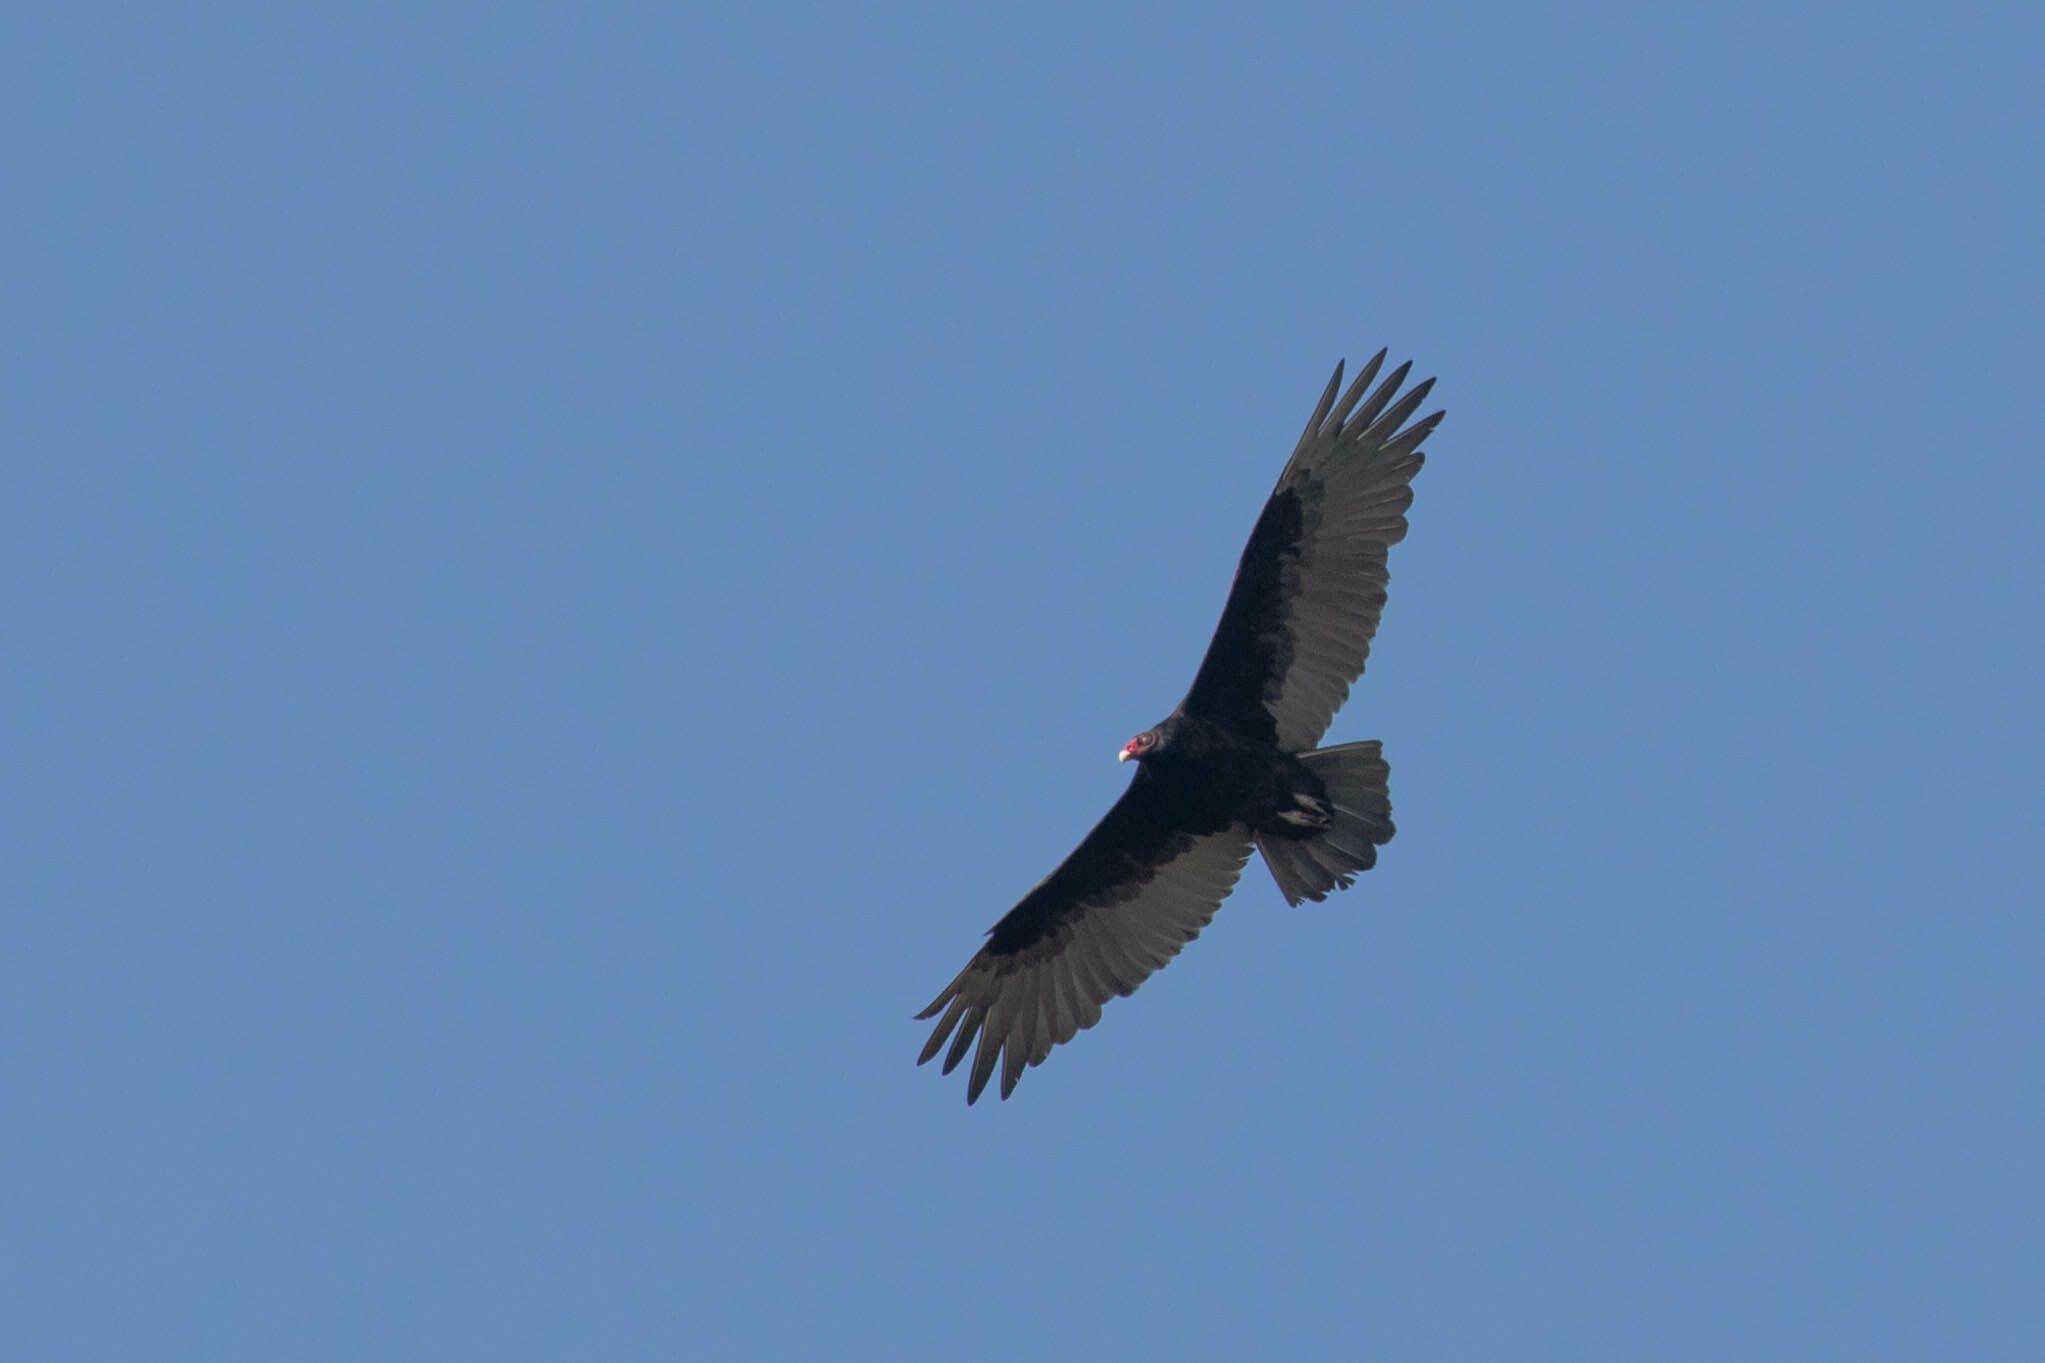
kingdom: Animalia
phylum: Chordata
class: Aves
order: Accipitriformes
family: Cathartidae
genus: Cathartes
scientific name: Cathartes aura
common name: Turkey vulture
